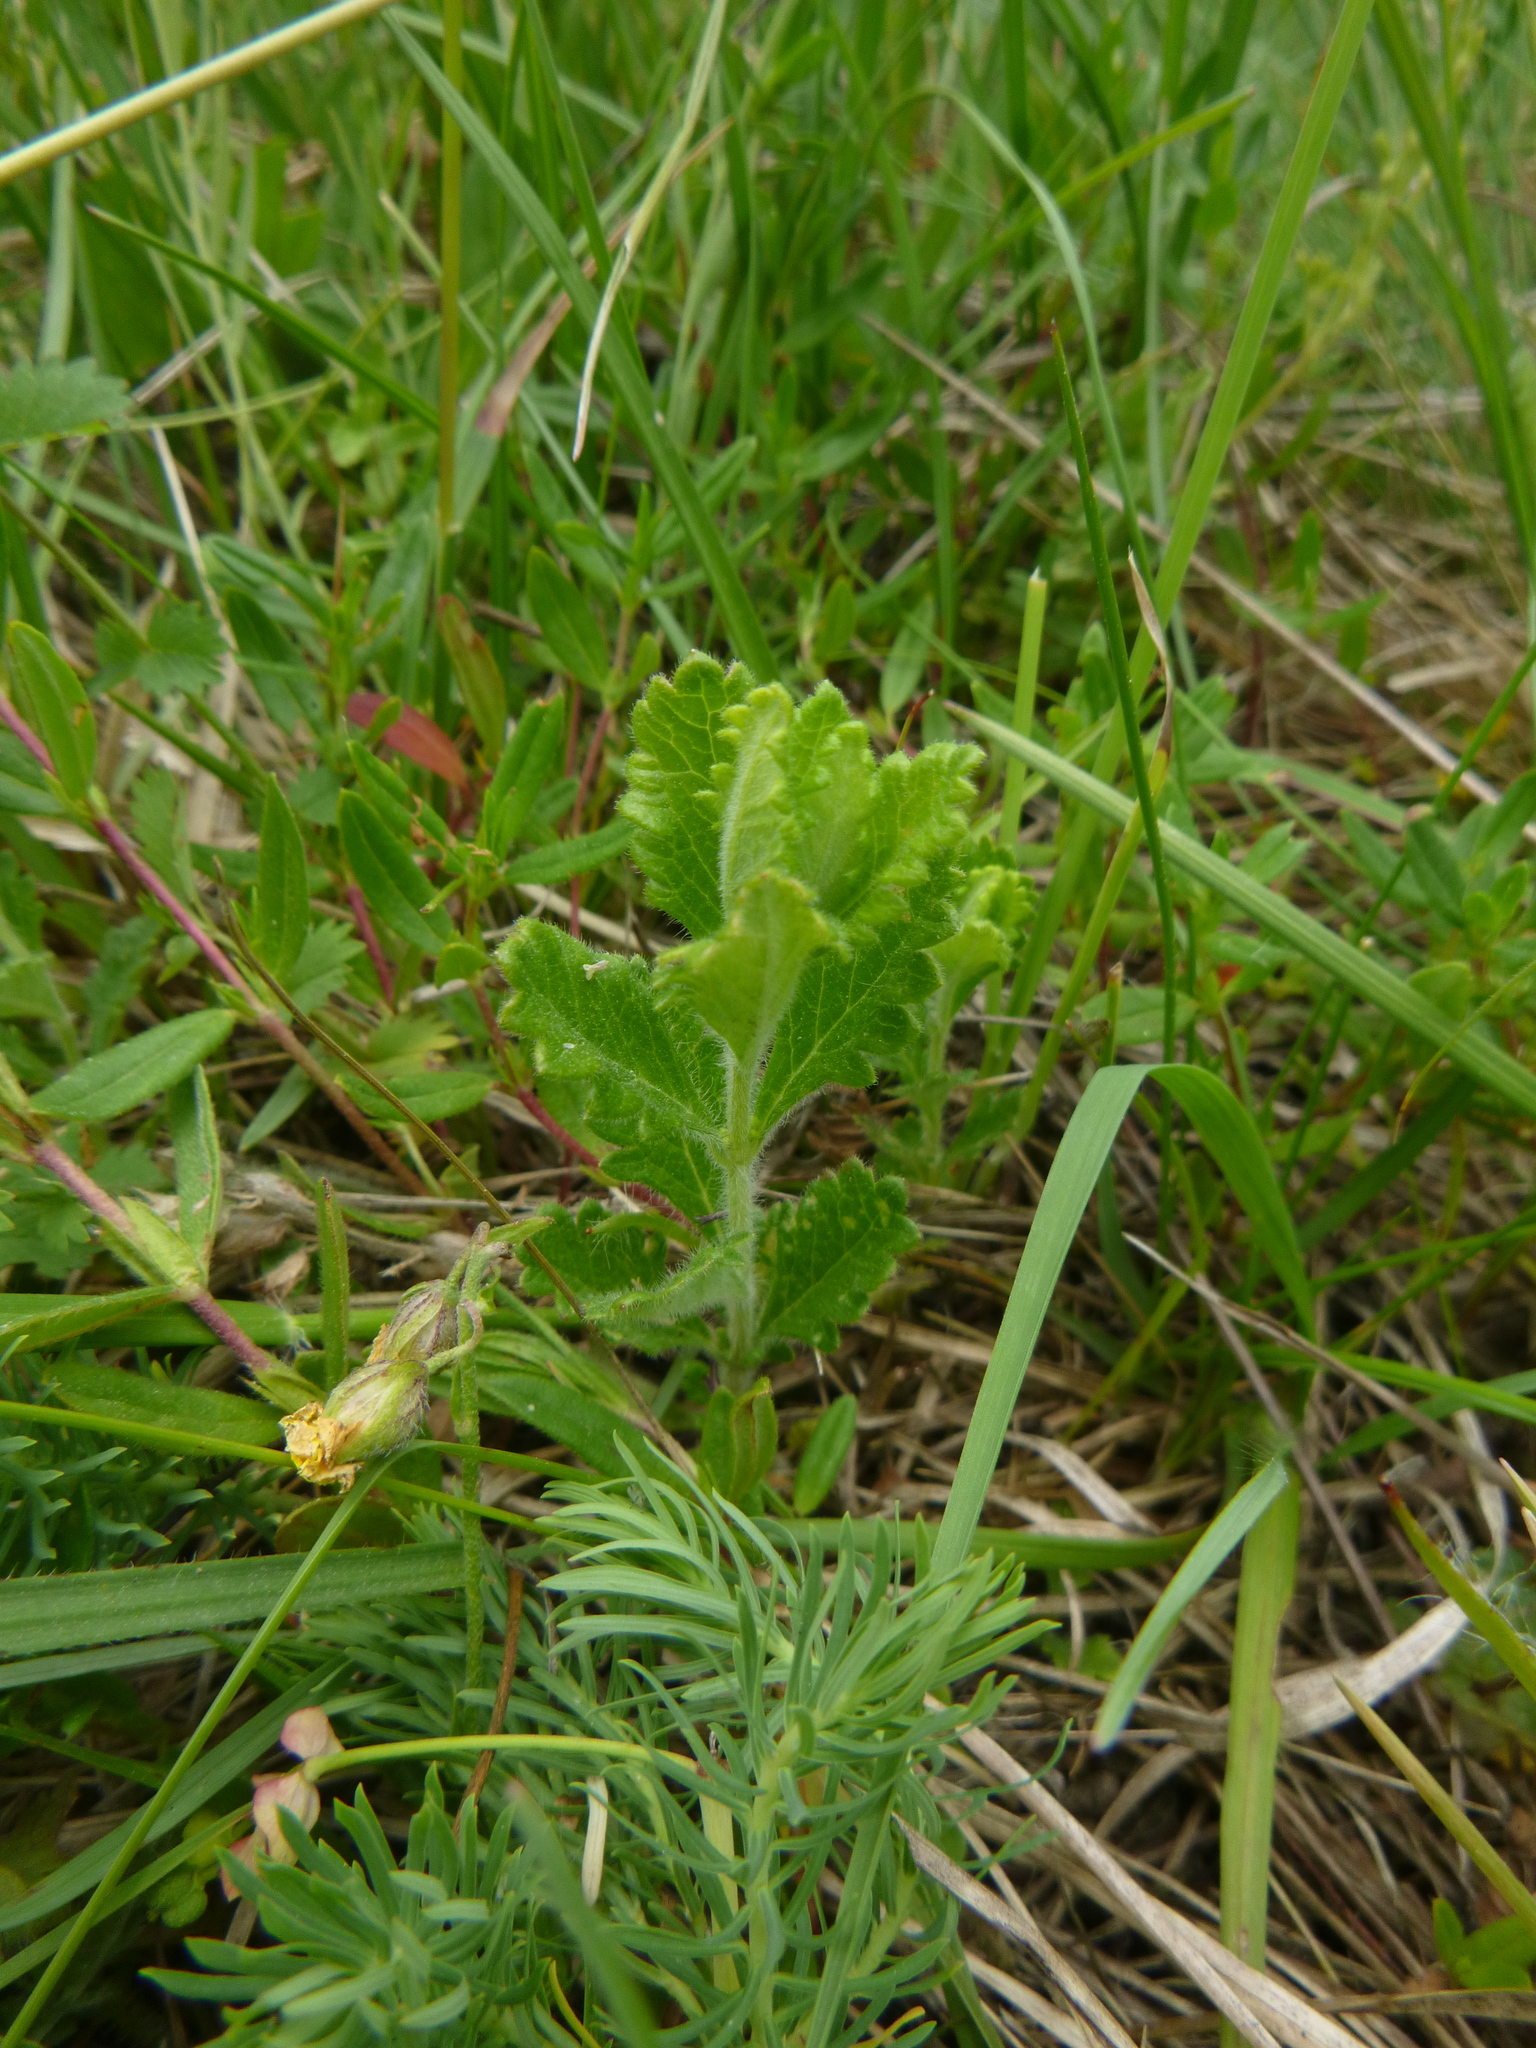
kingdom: Plantae
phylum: Tracheophyta
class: Magnoliopsida
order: Lamiales
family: Lamiaceae
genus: Teucrium
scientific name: Teucrium chamaedrys
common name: Wall germander
